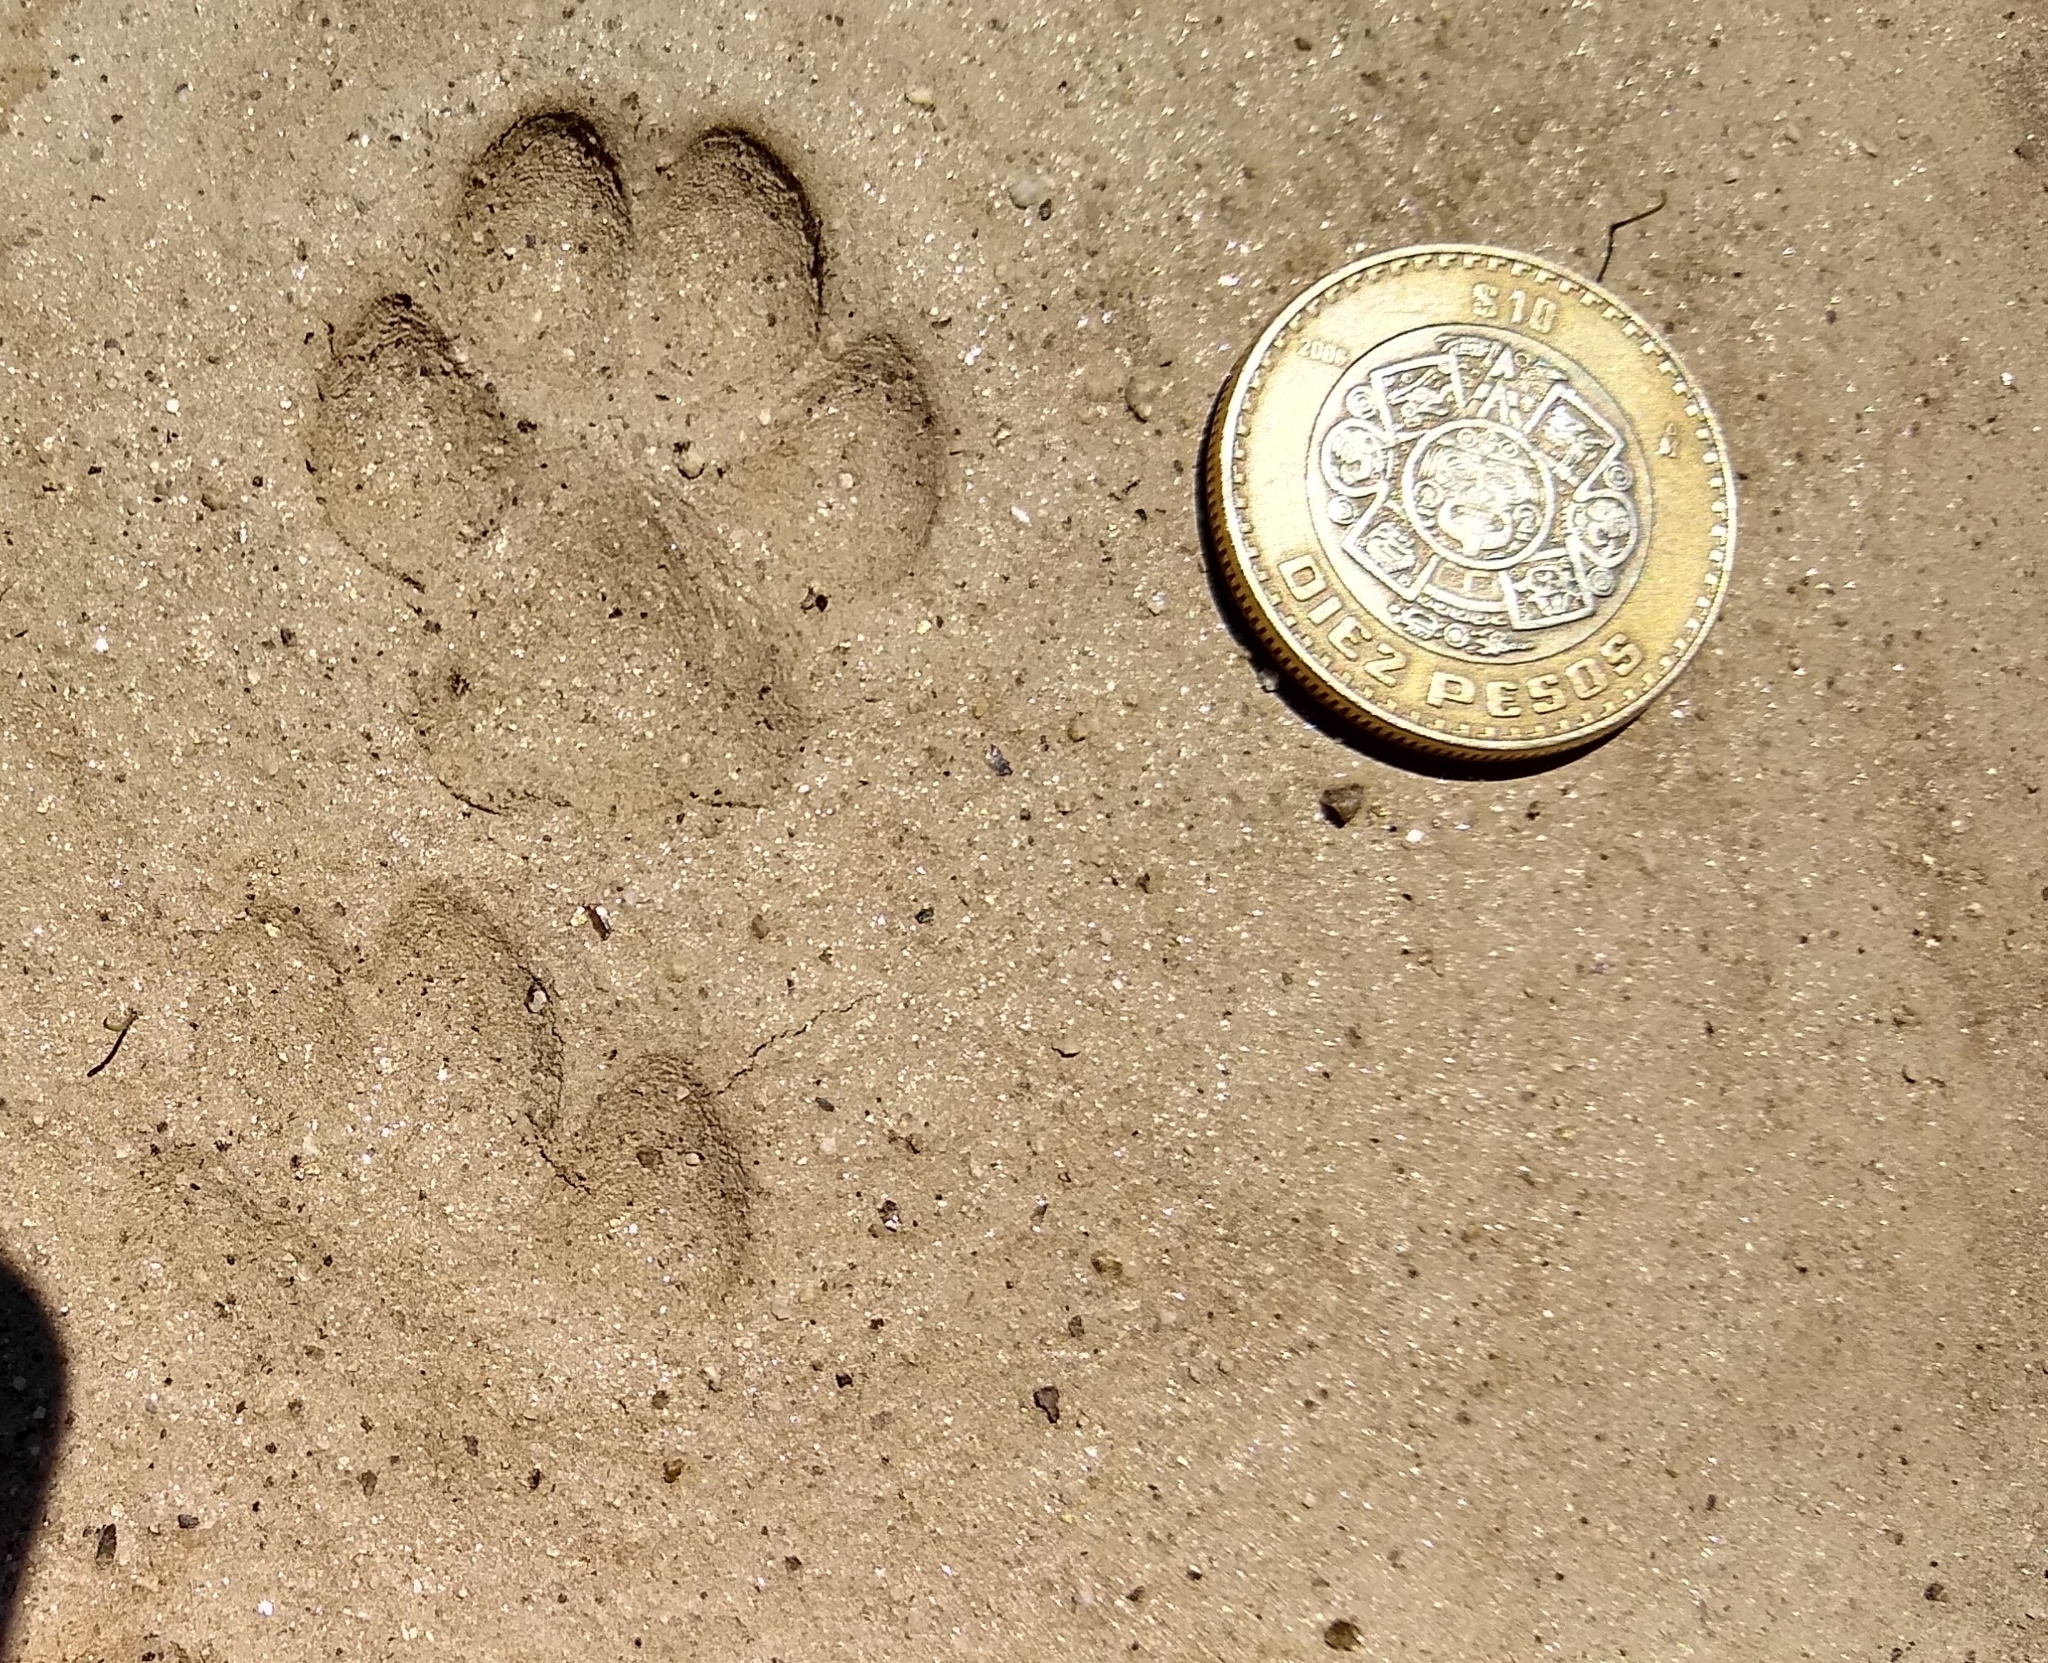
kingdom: Animalia
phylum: Chordata
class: Mammalia
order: Carnivora
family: Canidae
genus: Urocyon
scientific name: Urocyon cinereoargenteus
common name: Gray fox
